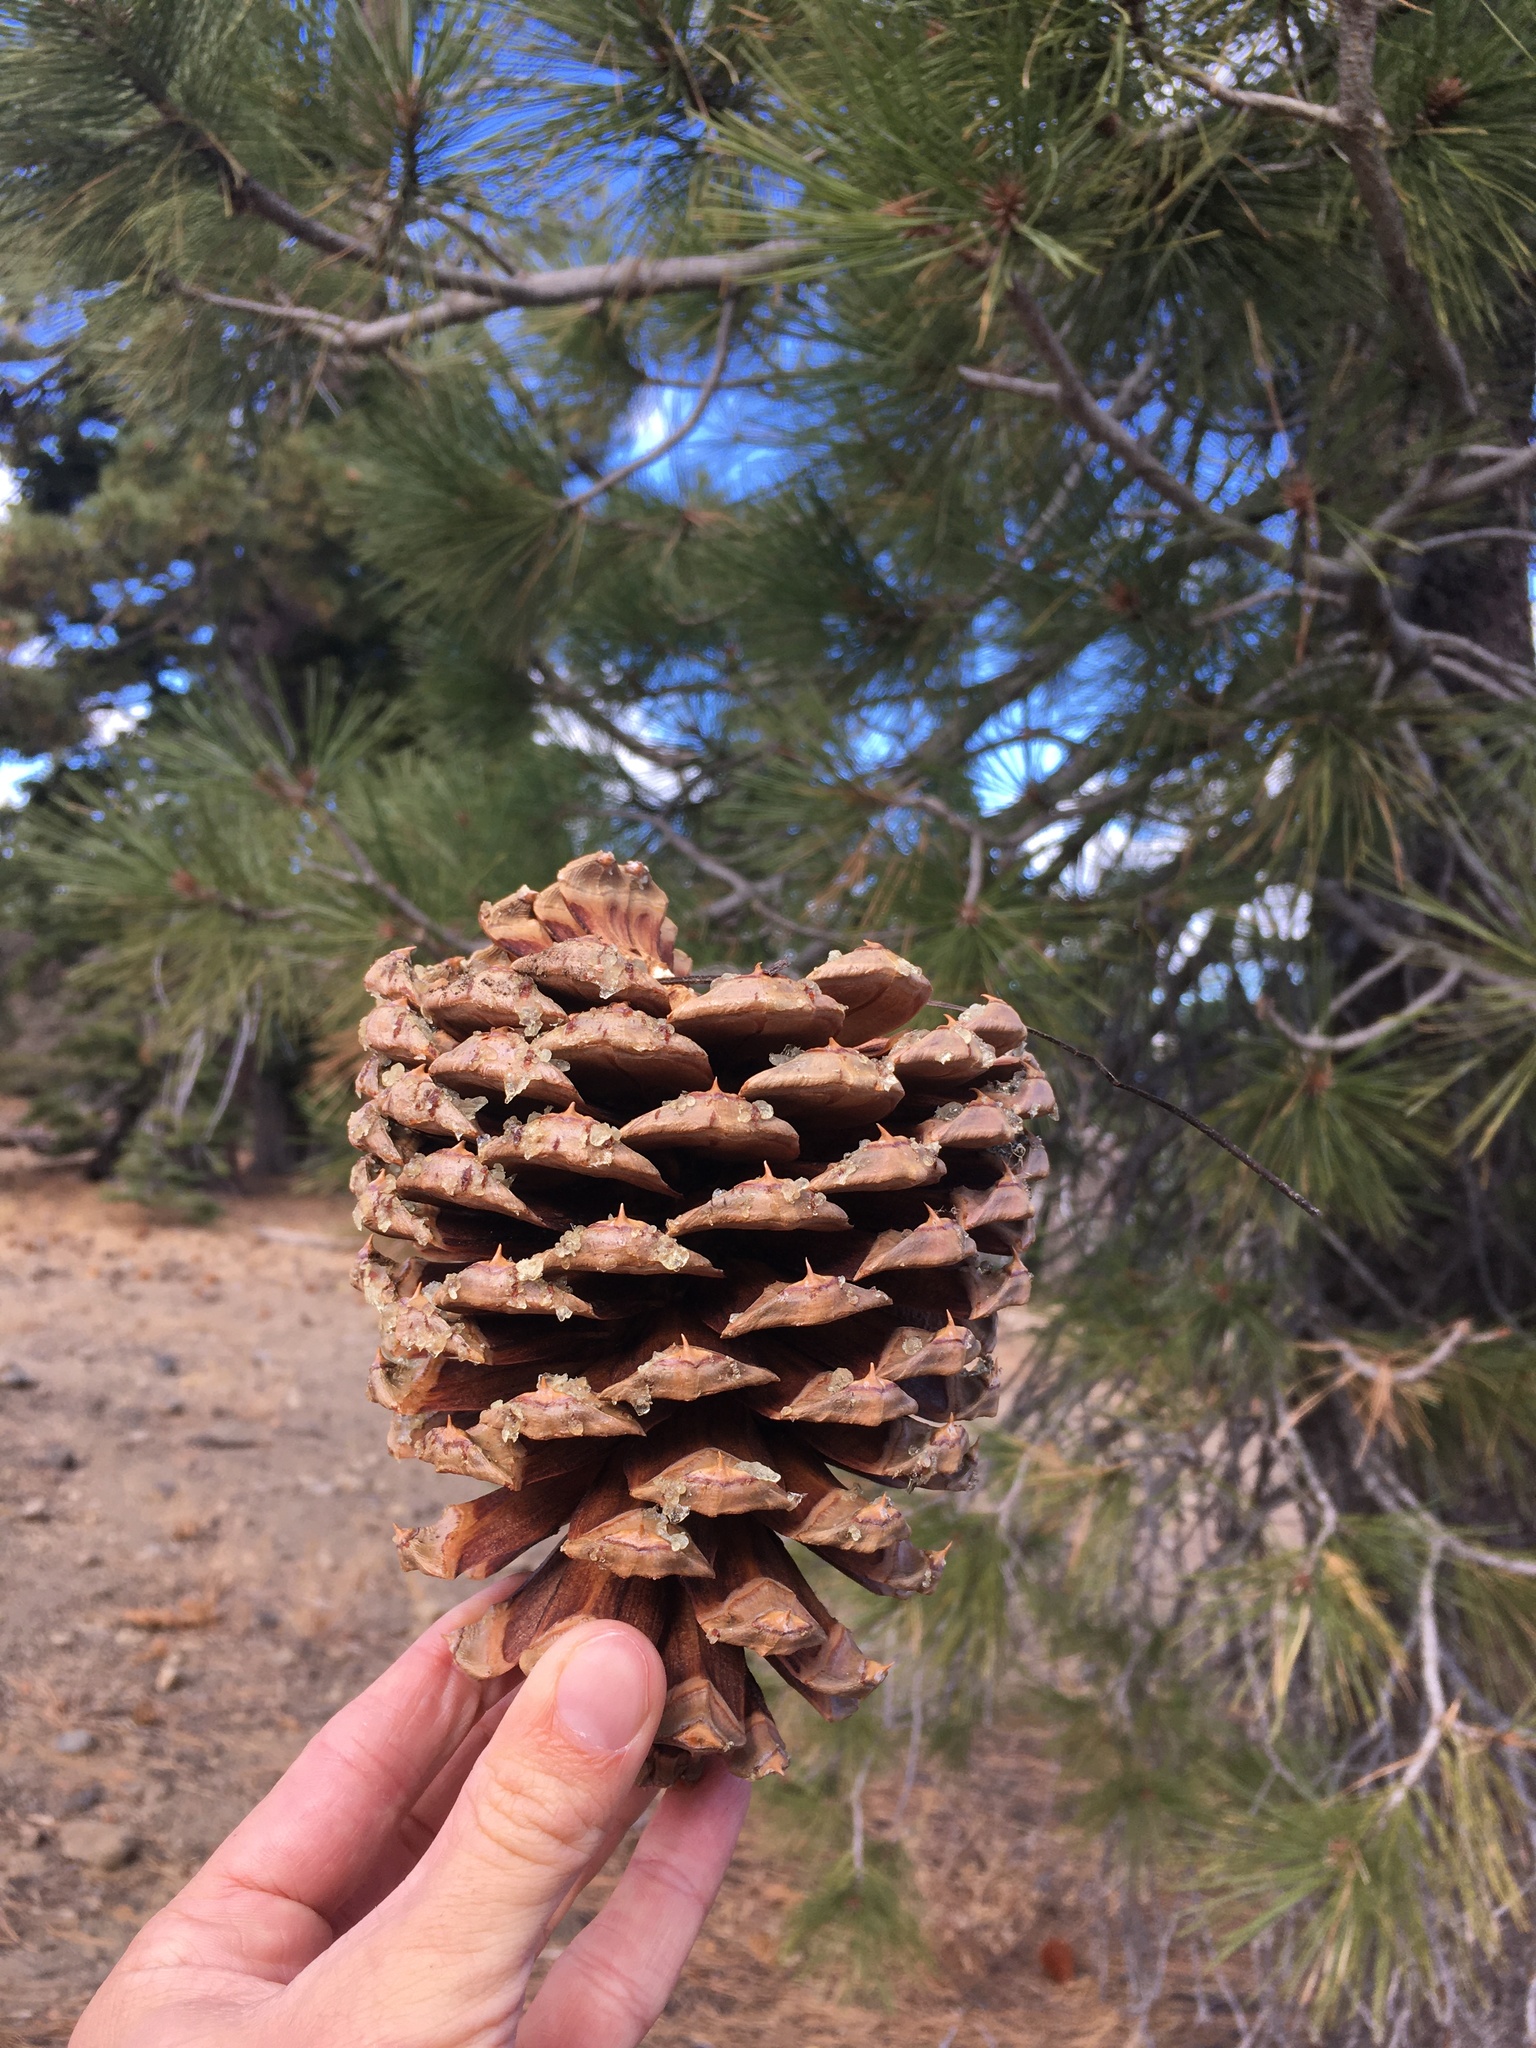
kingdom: Plantae
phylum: Tracheophyta
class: Pinopsida
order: Pinales
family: Pinaceae
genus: Pinus
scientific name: Pinus jeffreyi
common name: Jeffrey pine
